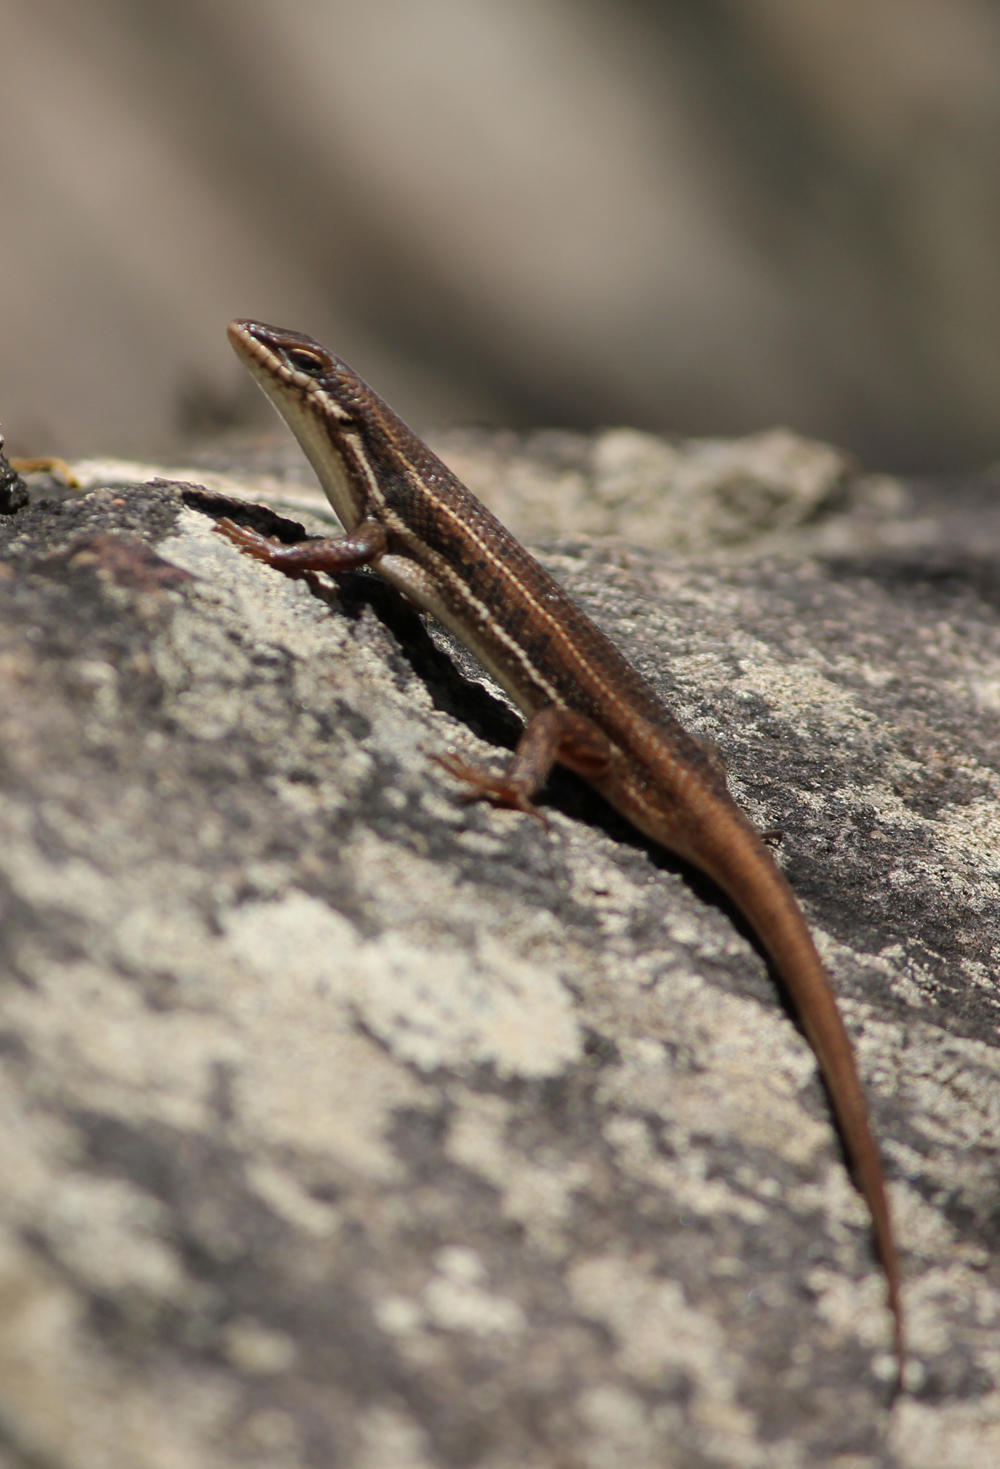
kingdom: Animalia
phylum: Chordata
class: Squamata
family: Scincidae
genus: Trachylepis
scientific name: Trachylepis varia
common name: Eastern variable skink
